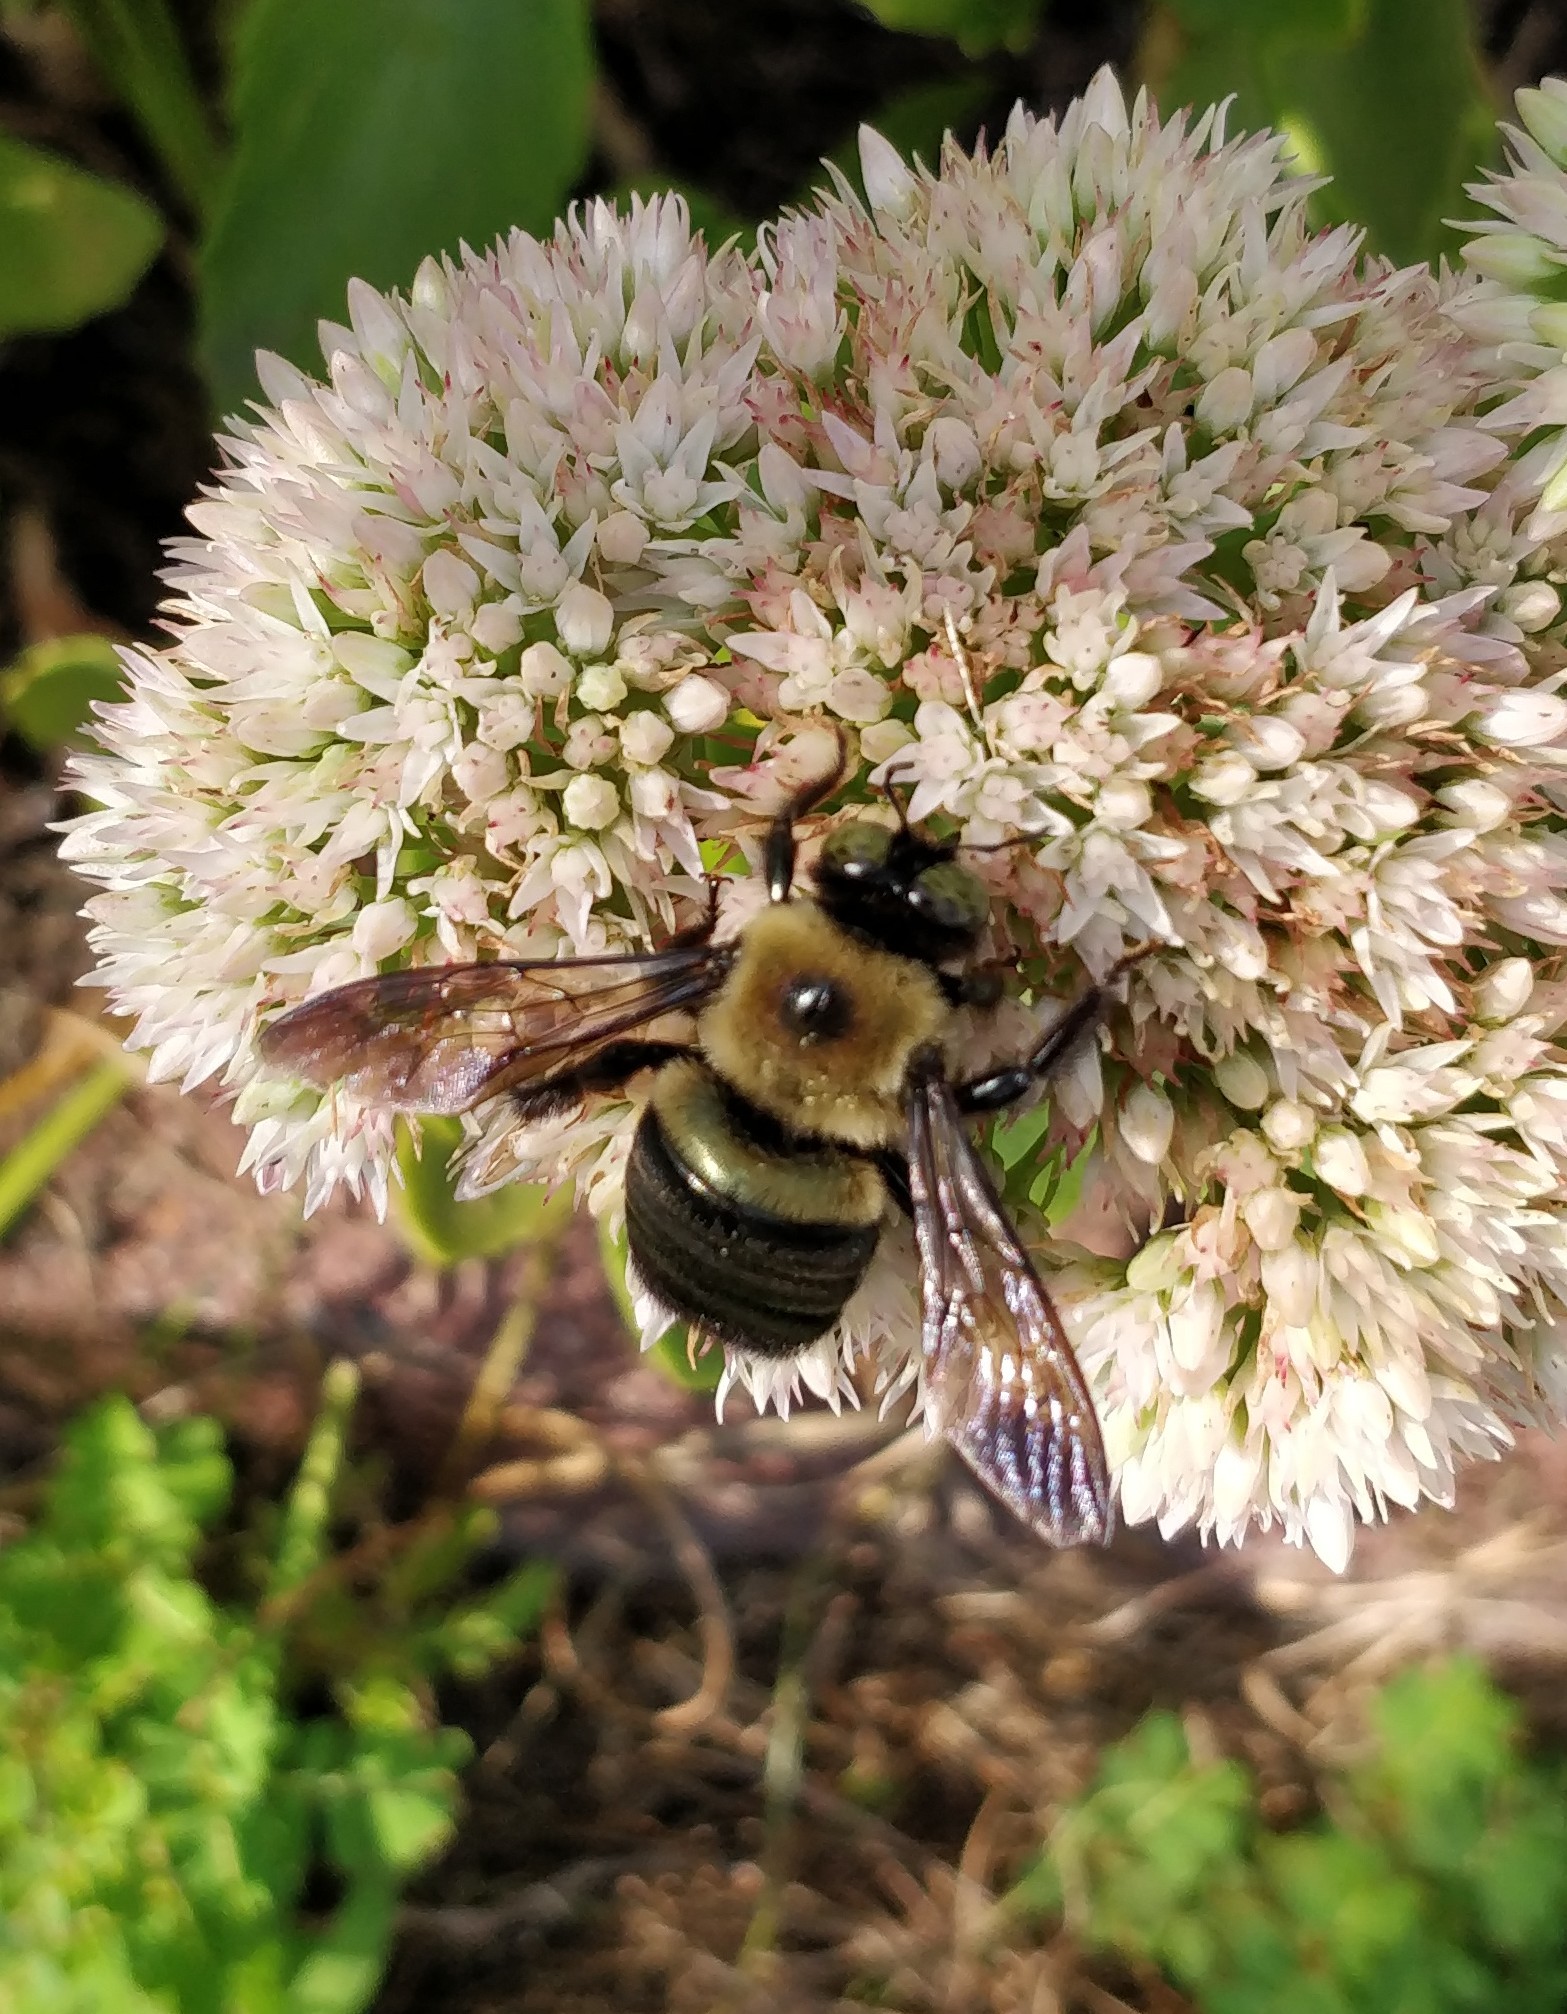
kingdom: Animalia
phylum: Arthropoda
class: Insecta
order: Hymenoptera
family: Apidae
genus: Xylocopa
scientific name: Xylocopa virginica
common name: Carpenter bee
